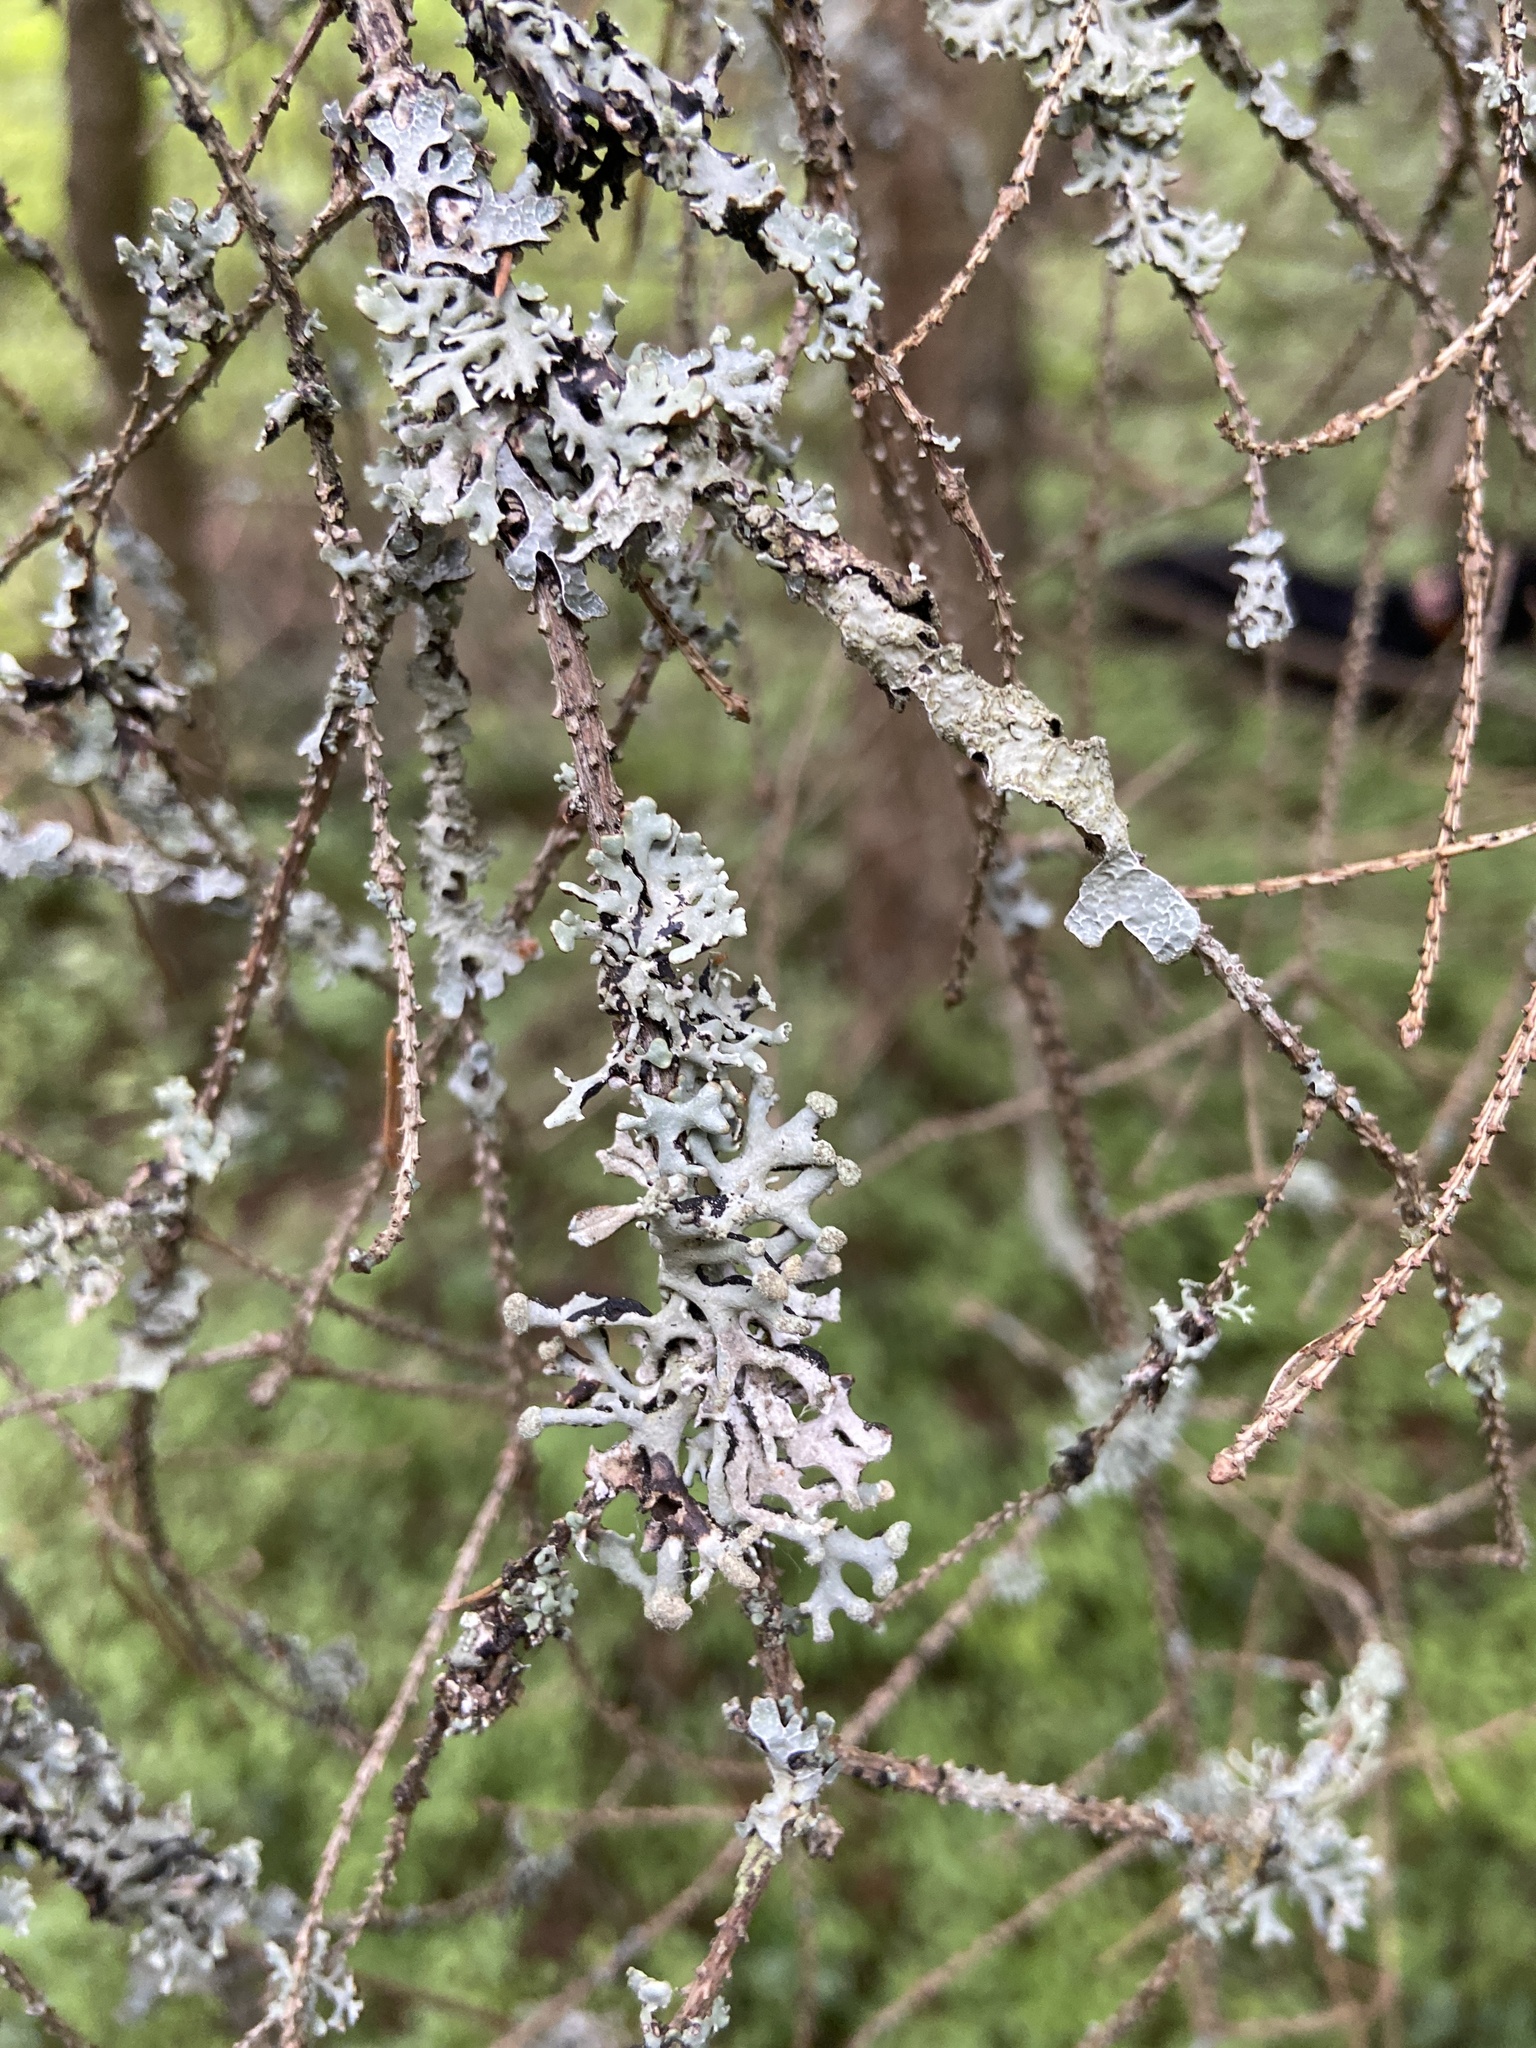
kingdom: Fungi
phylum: Ascomycota
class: Lecanoromycetes
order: Lecanorales
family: Parmeliaceae
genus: Hypogymnia
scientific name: Hypogymnia tubulosa
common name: Powder-headed tube lichen
